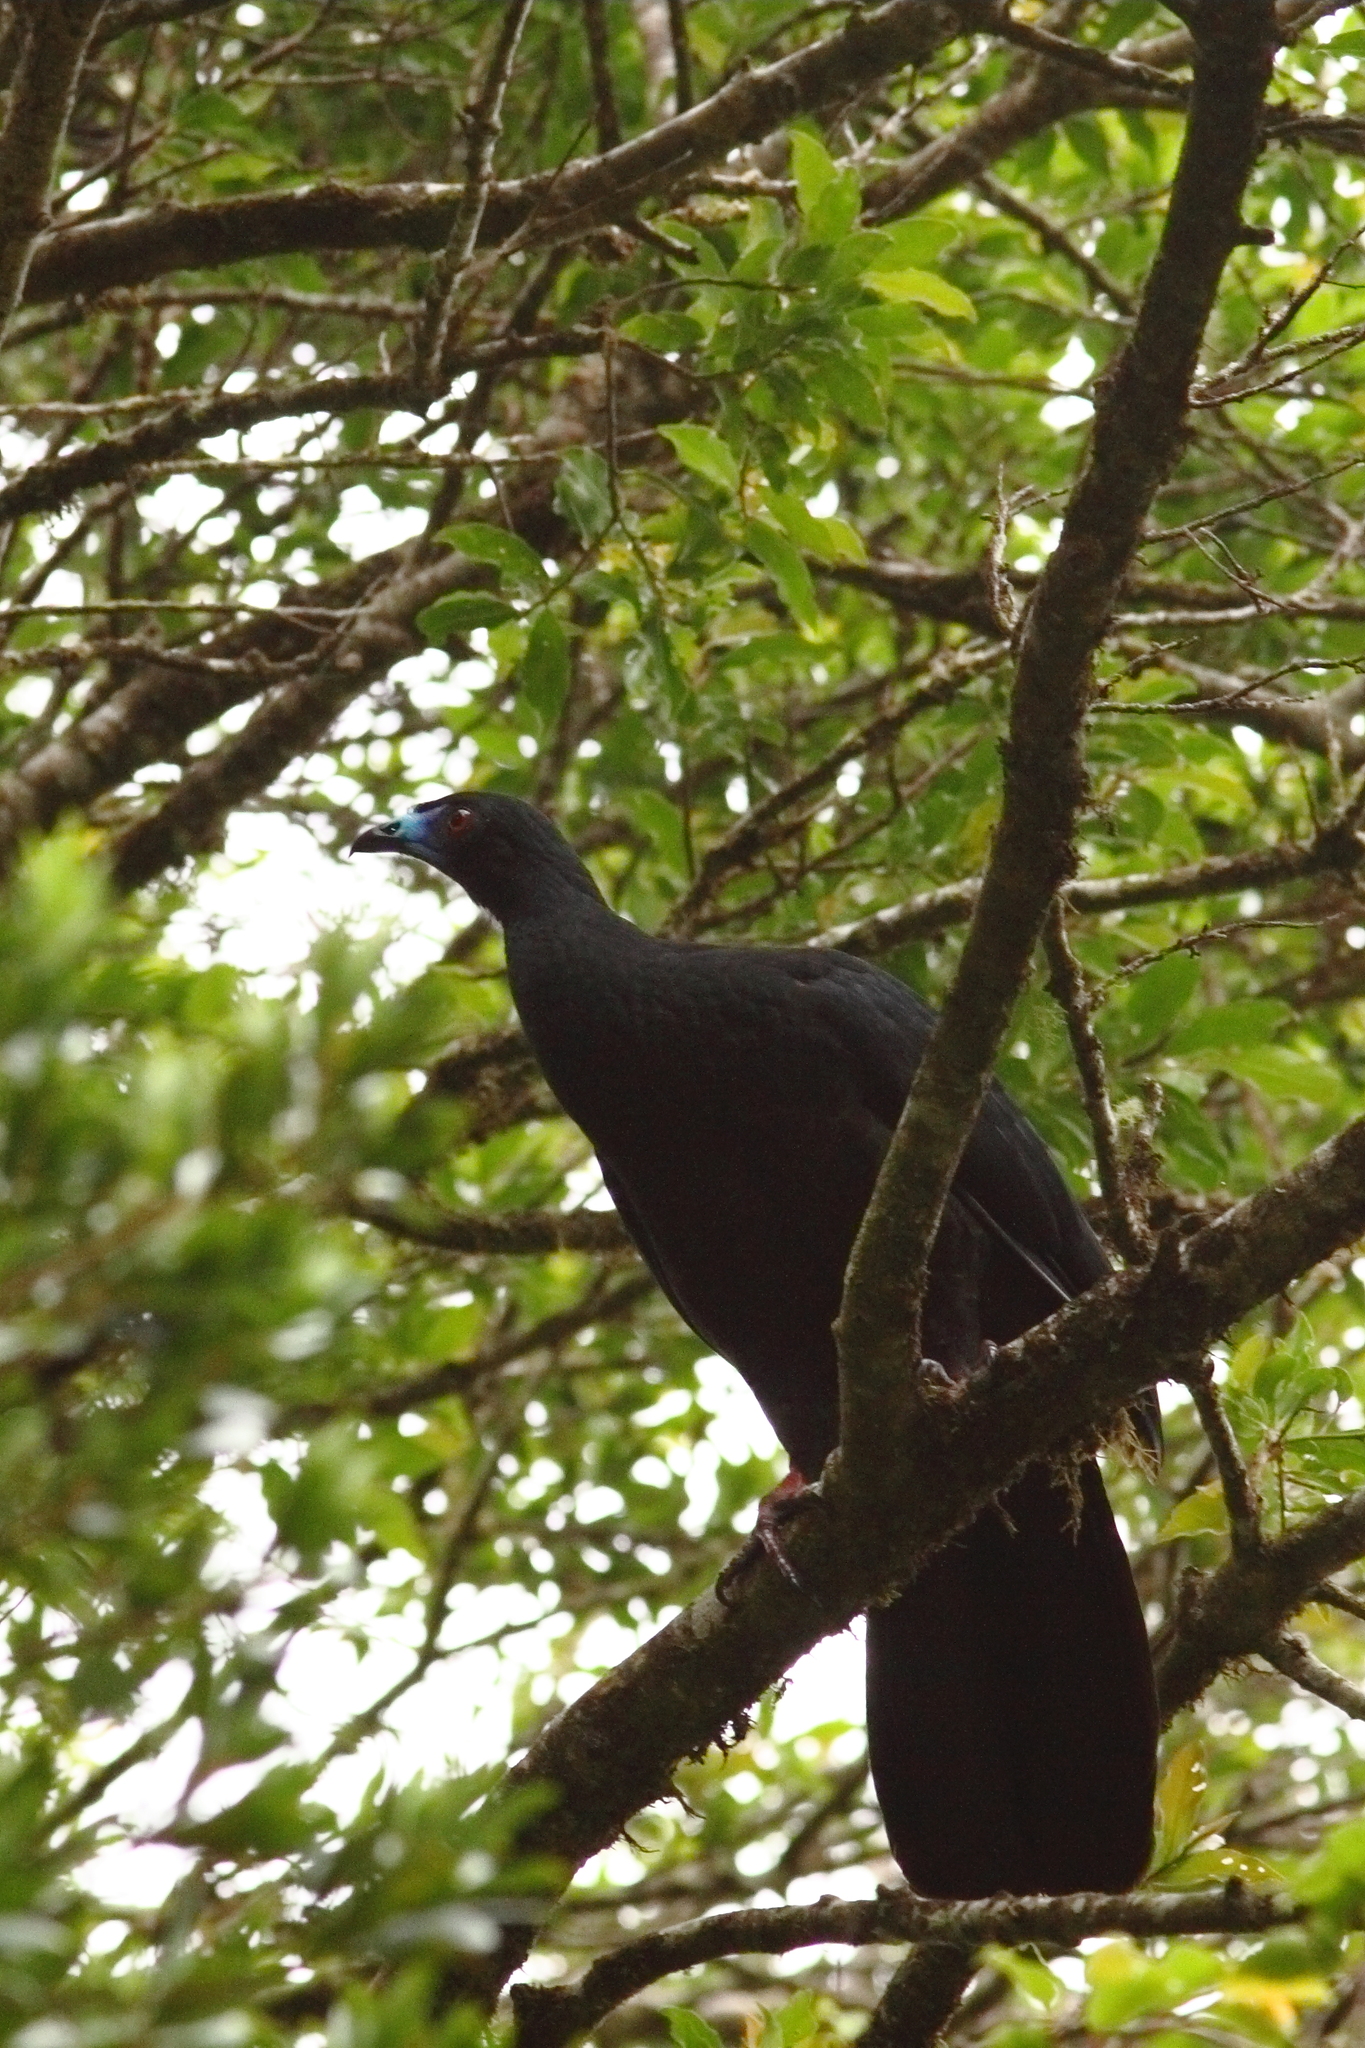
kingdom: Animalia
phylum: Chordata
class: Aves
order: Galliformes
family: Cracidae
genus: Chamaepetes
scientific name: Chamaepetes unicolor
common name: Black guan
